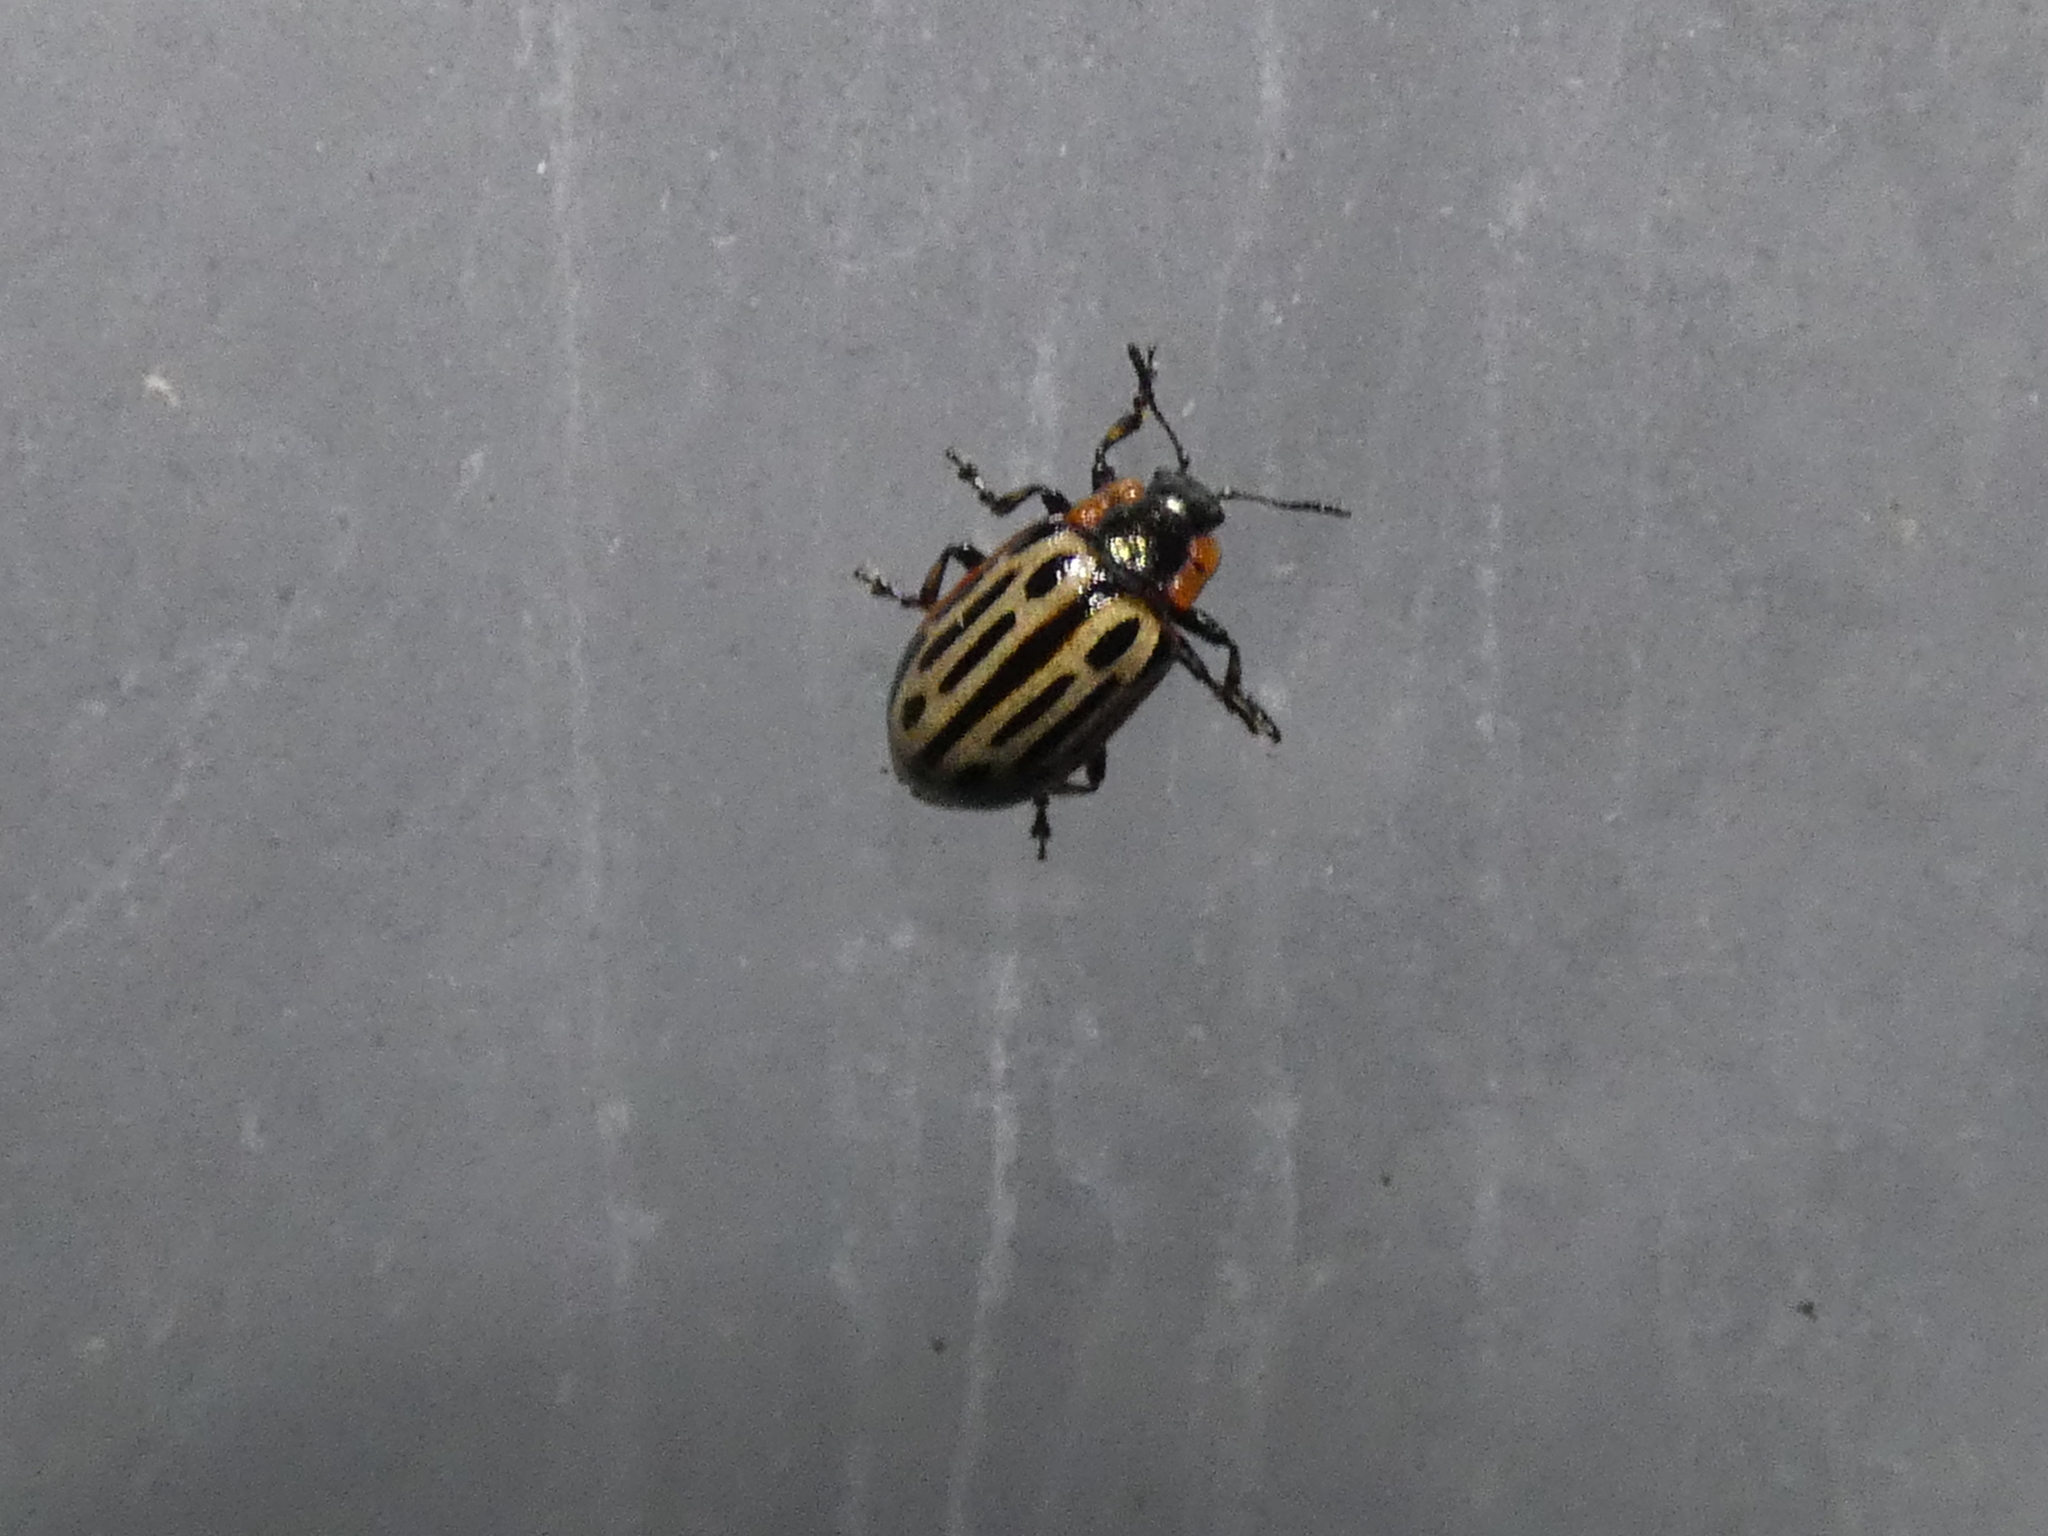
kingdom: Animalia
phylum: Arthropoda
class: Insecta
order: Coleoptera
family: Chrysomelidae
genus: Aethiopocassis
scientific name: Aethiopocassis scripta
